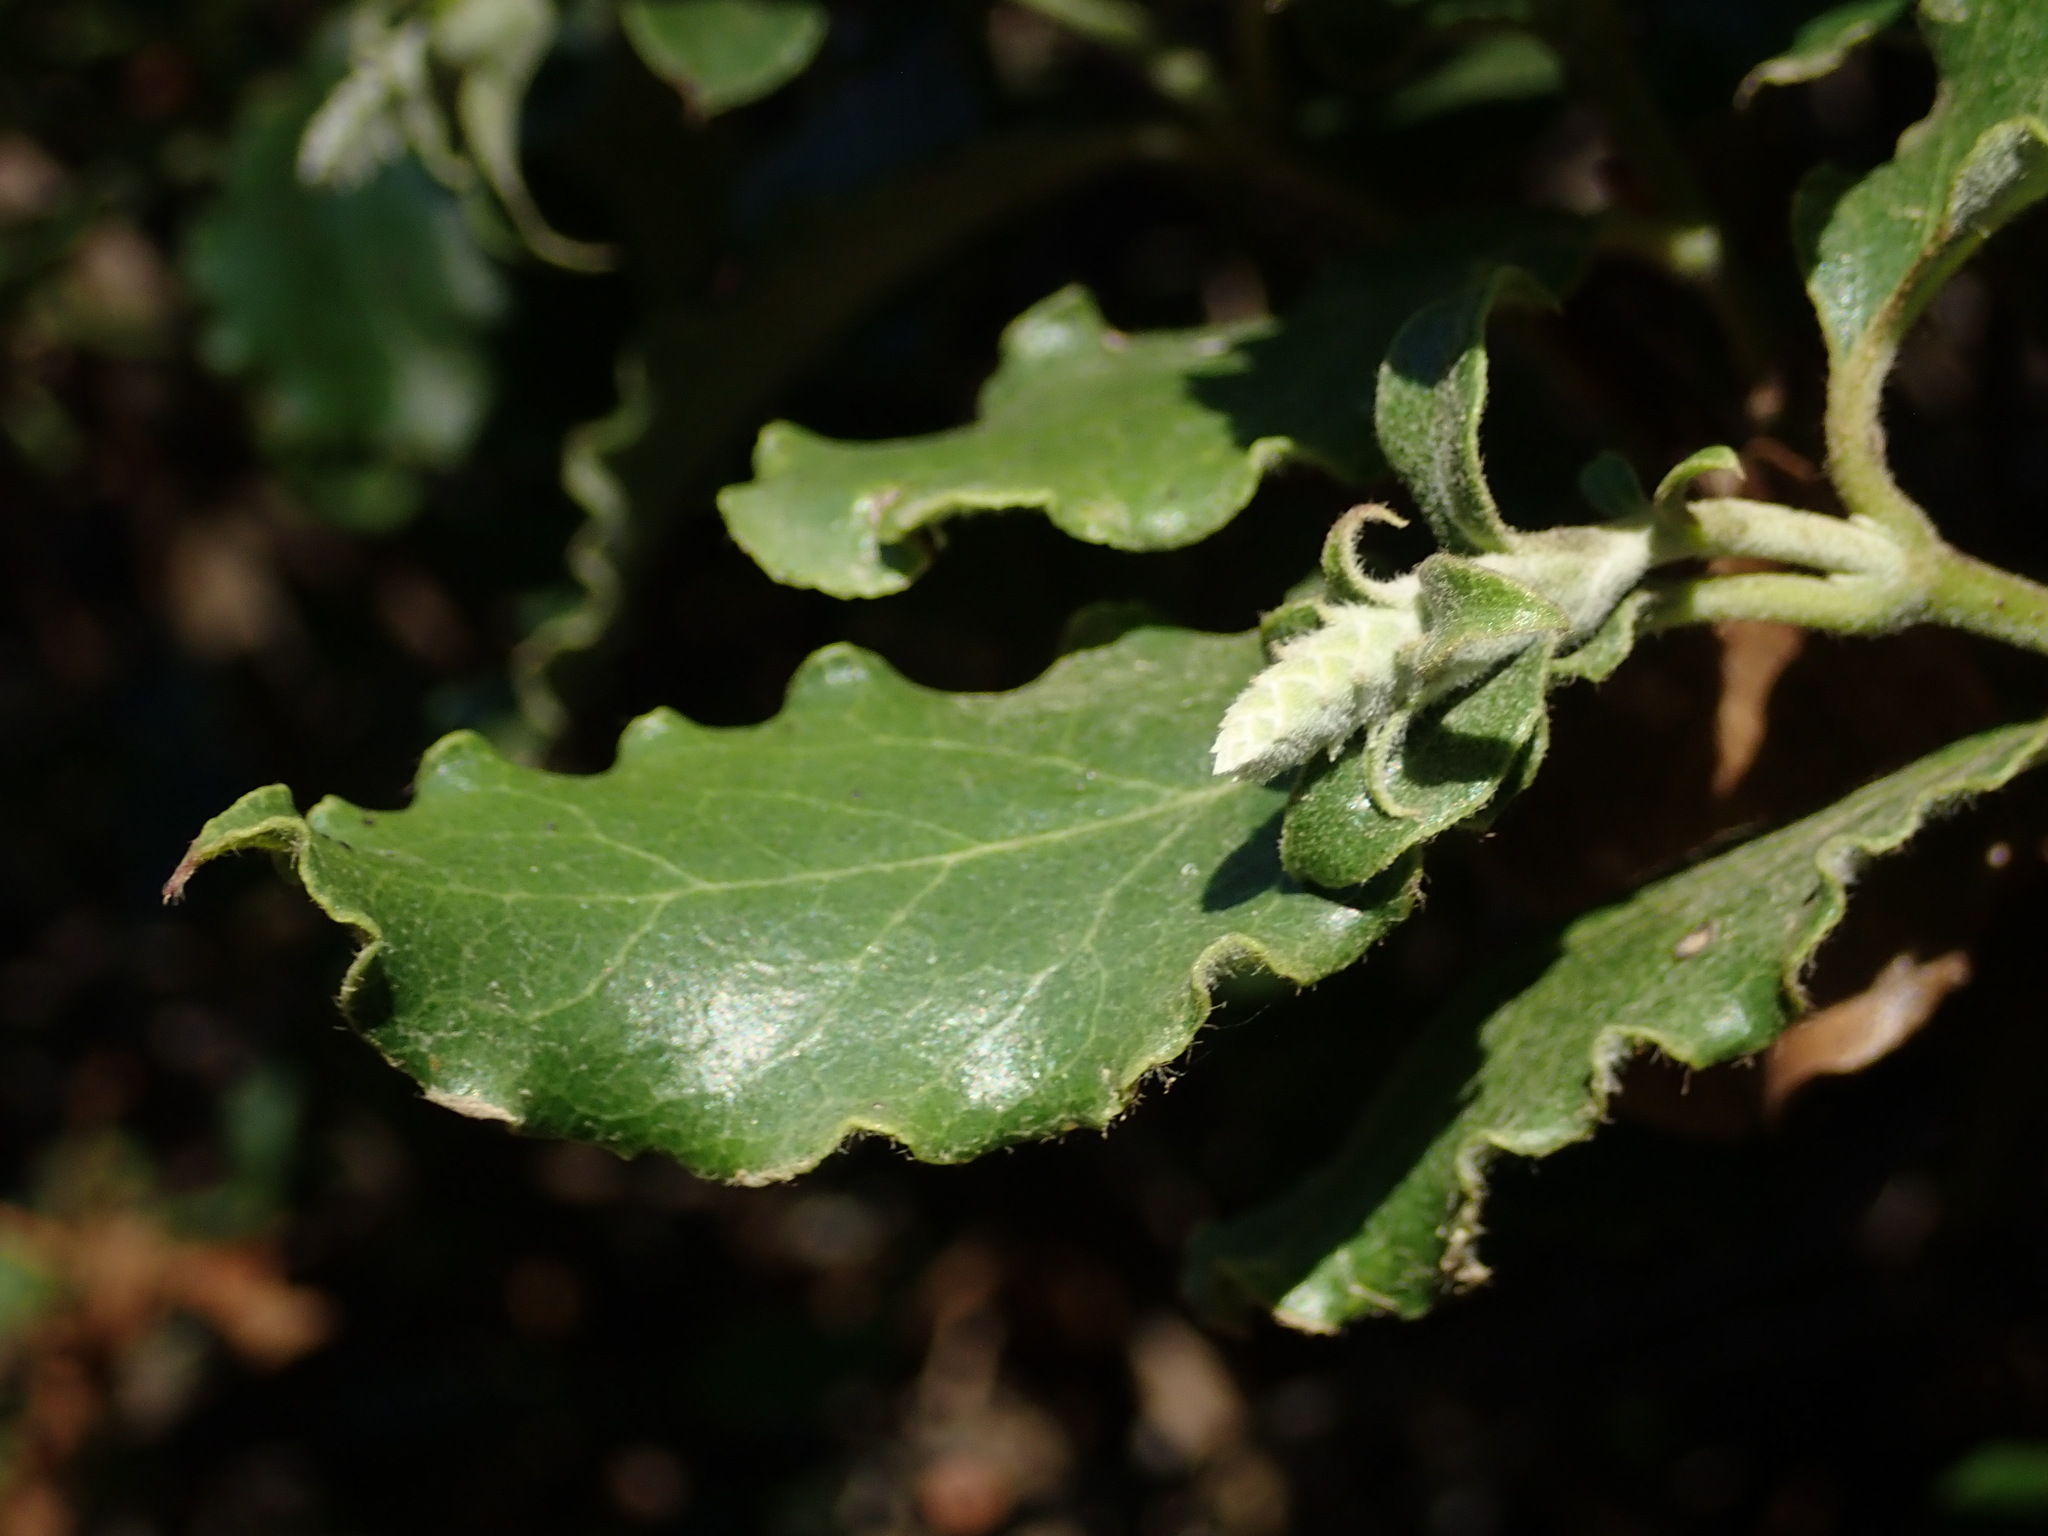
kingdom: Plantae
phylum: Tracheophyta
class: Magnoliopsida
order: Garryales
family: Garryaceae
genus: Garrya
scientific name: Garrya elliptica
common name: Silk-tassel
